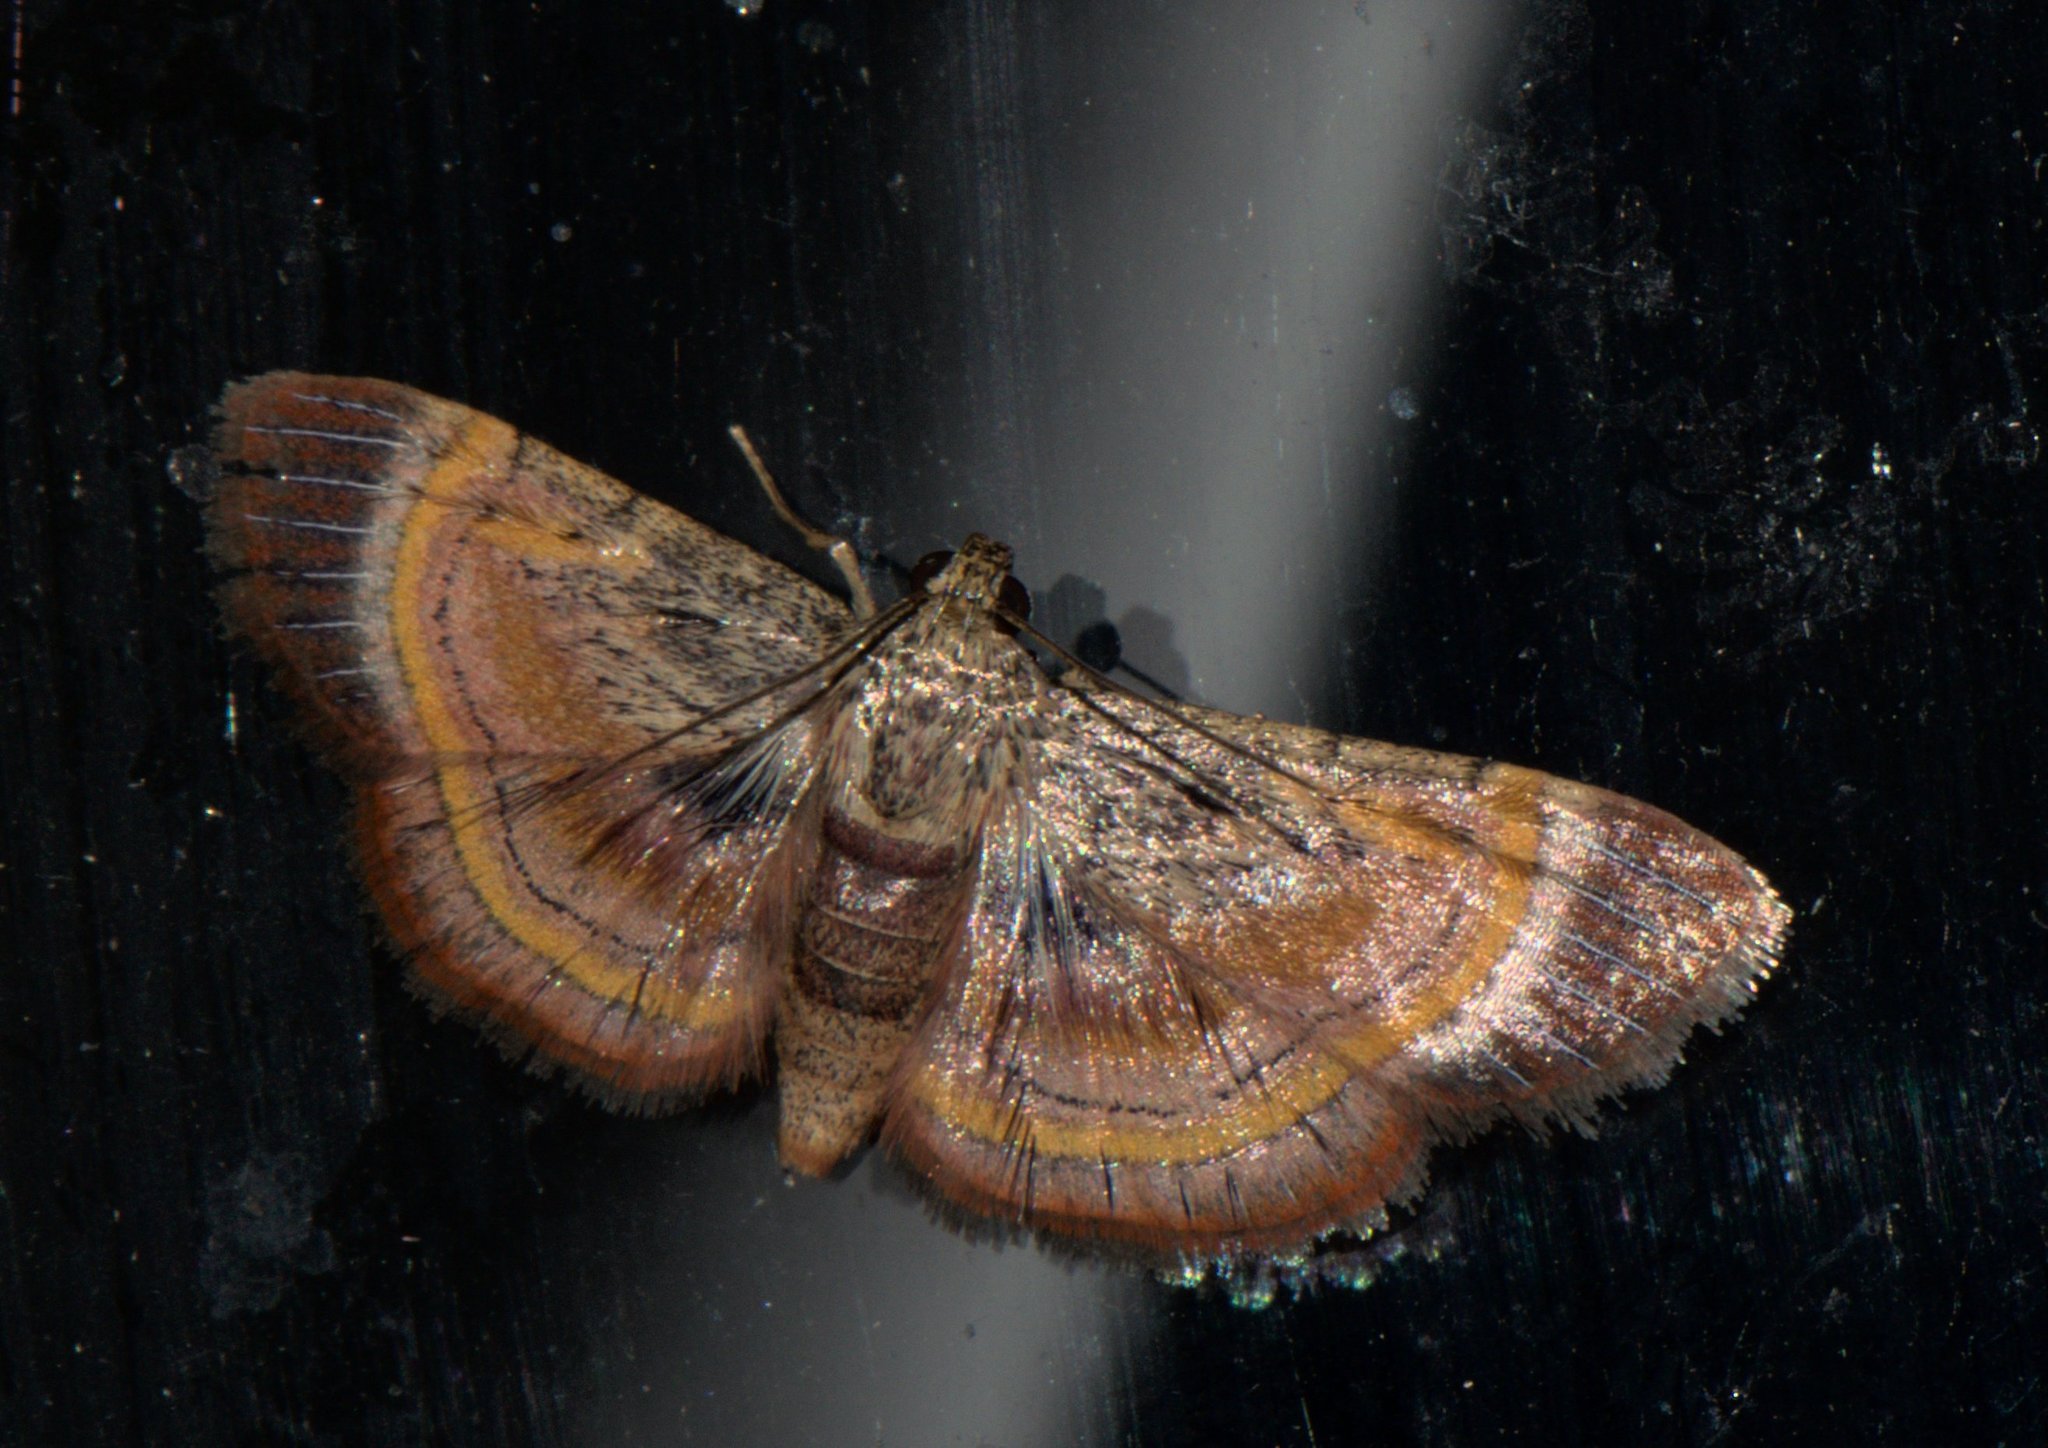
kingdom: Animalia
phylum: Arthropoda
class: Insecta
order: Lepidoptera
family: Pyralidae
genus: Lista
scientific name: Lista ficki
